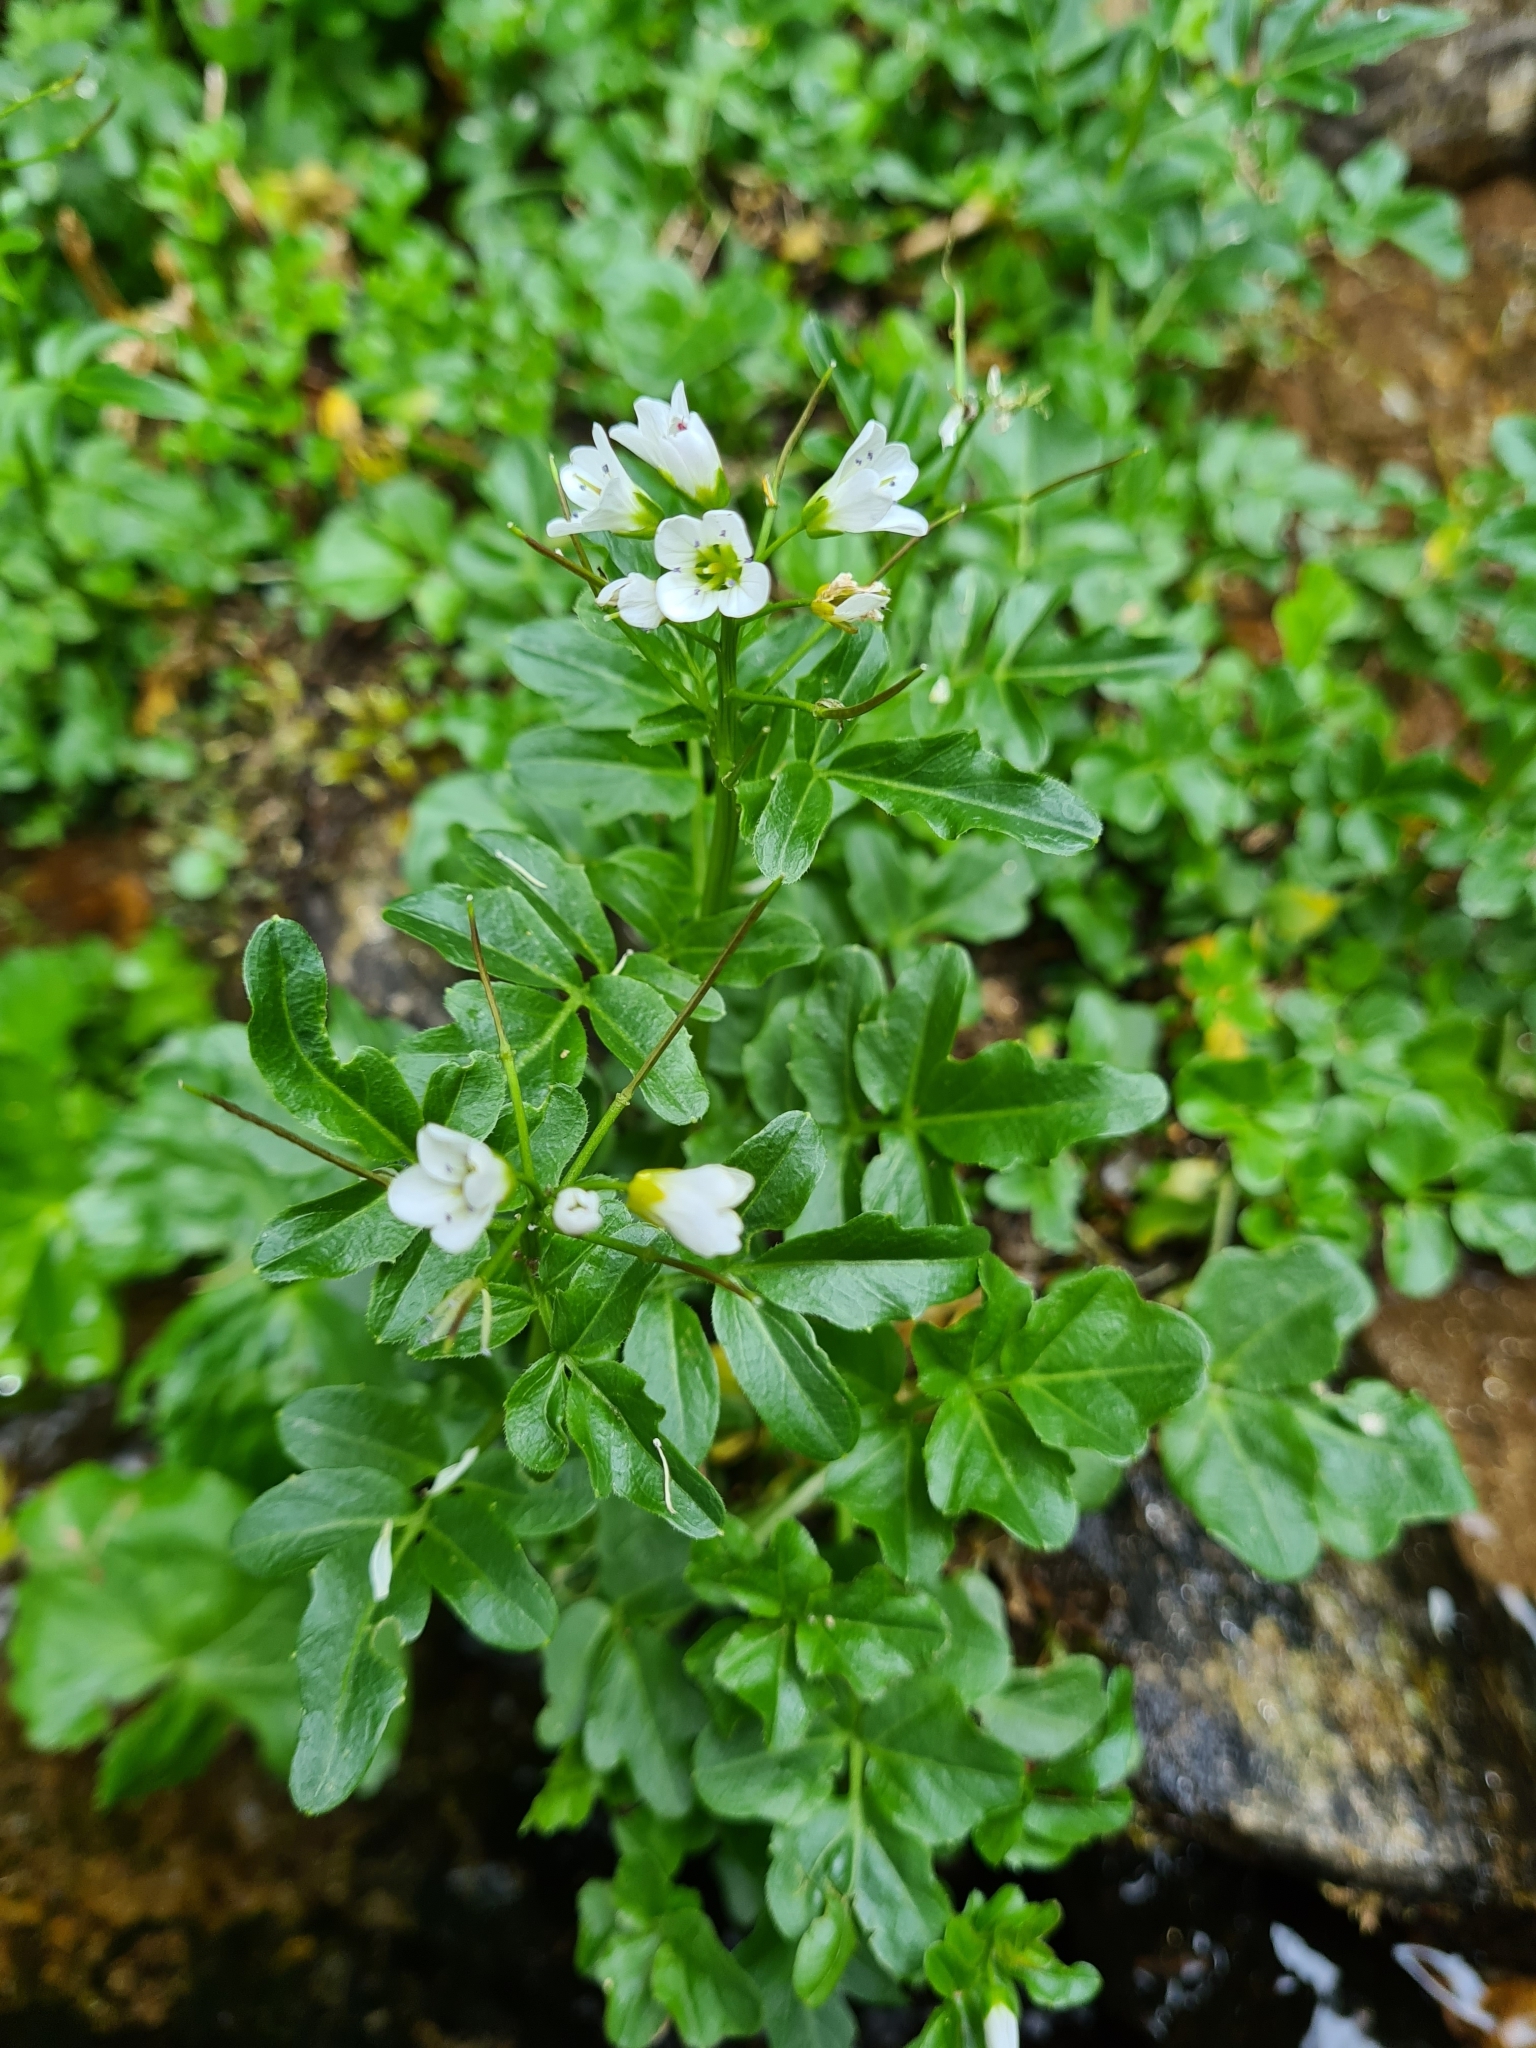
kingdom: Plantae
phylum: Tracheophyta
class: Magnoliopsida
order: Brassicales
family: Brassicaceae
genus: Cardamine
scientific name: Cardamine amara
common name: Large bitter-cress
